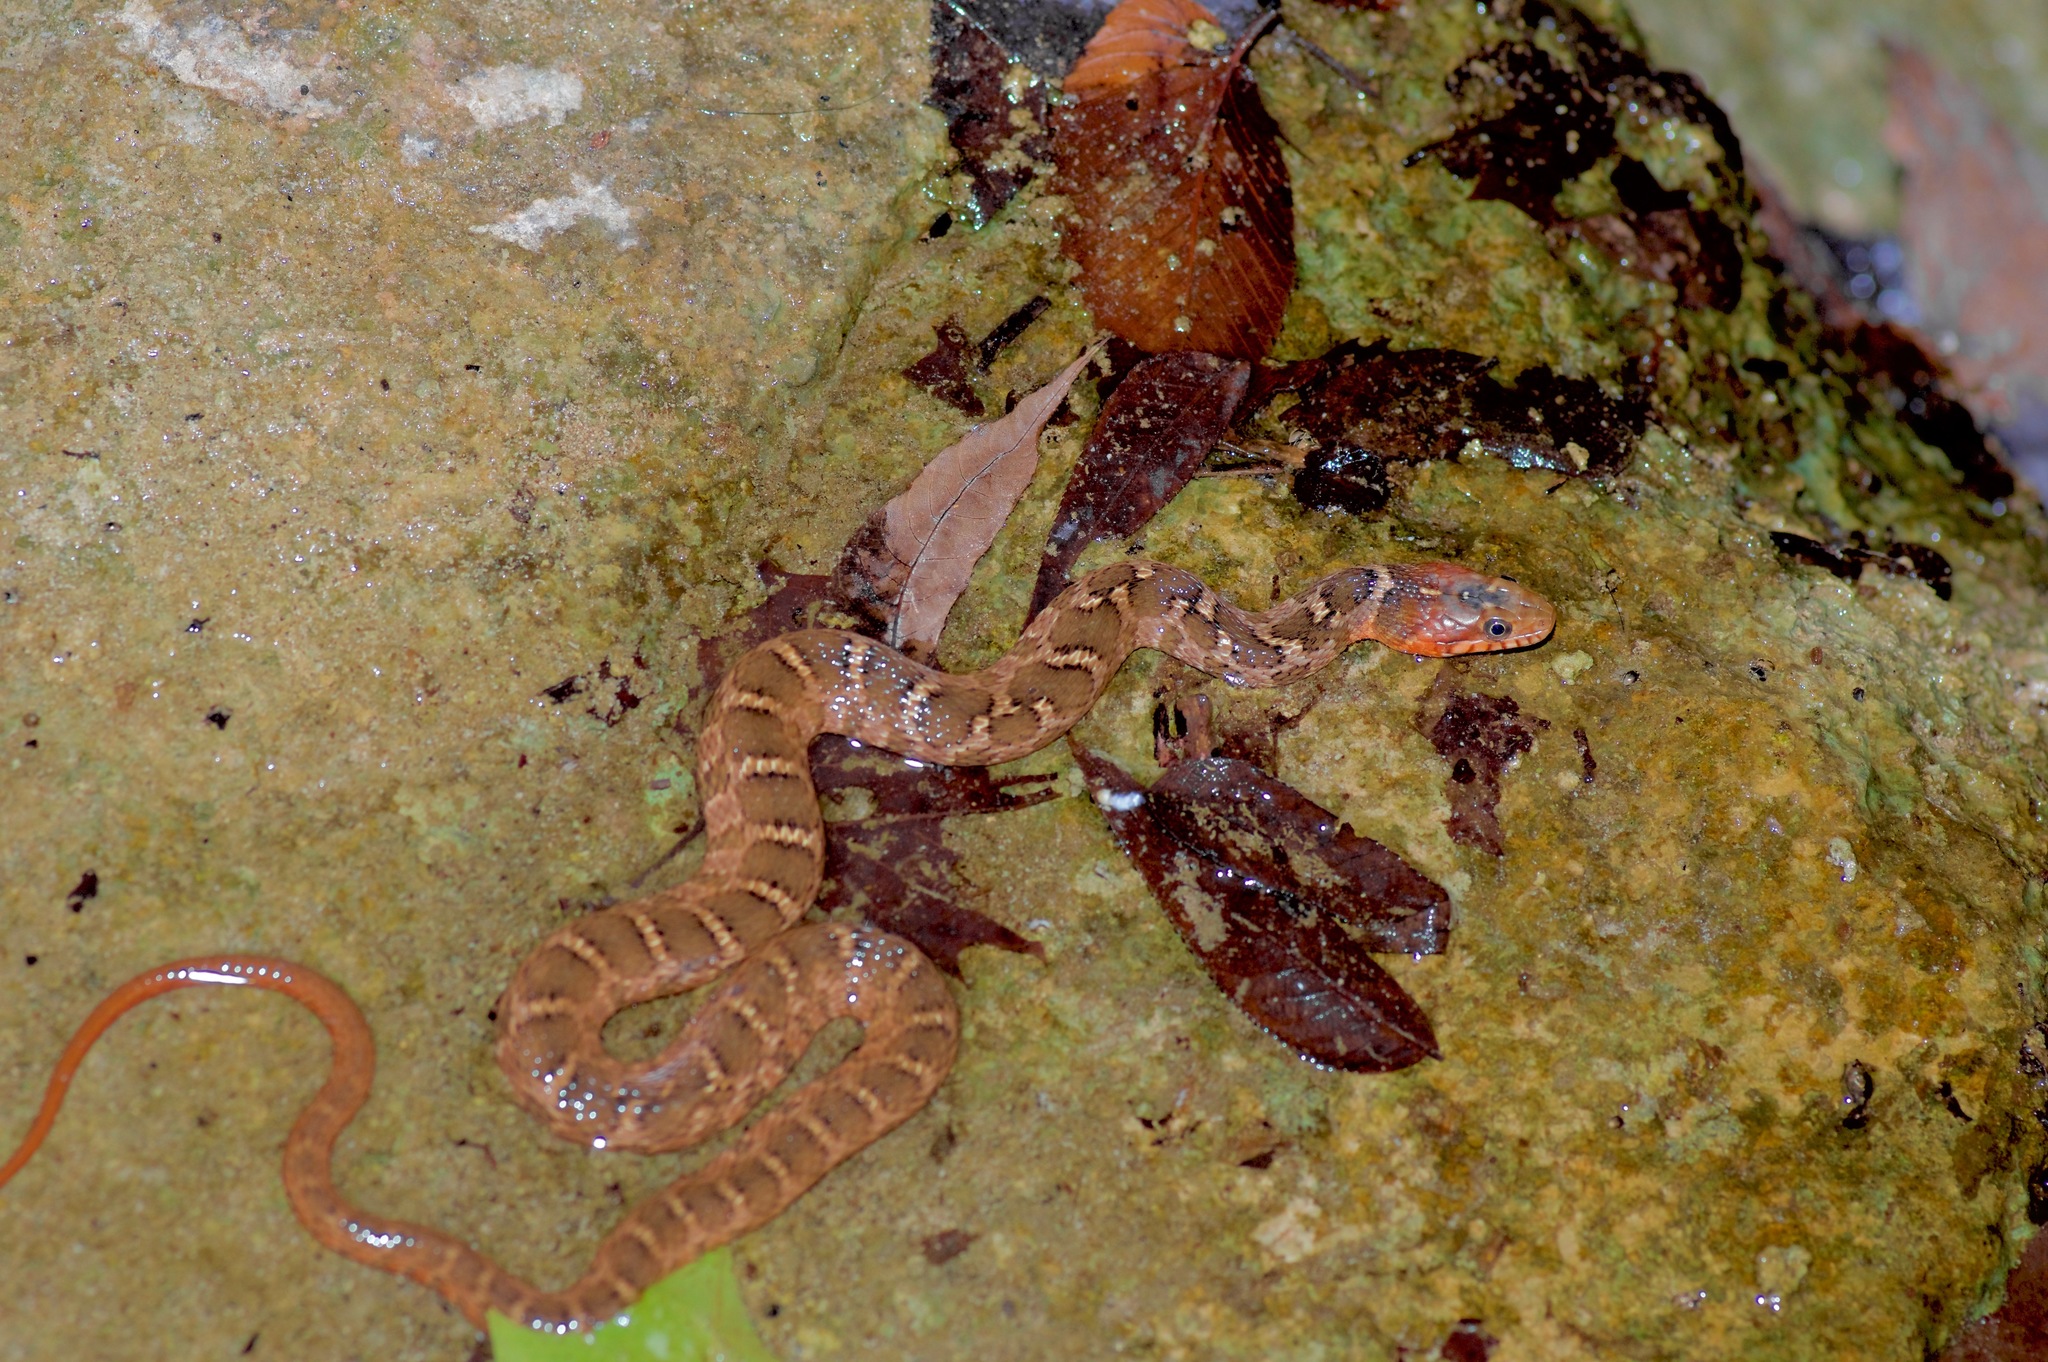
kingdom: Animalia
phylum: Chordata
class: Squamata
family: Colubridae
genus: Nerodia
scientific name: Nerodia erythrogaster
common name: Plainbelly water snake
